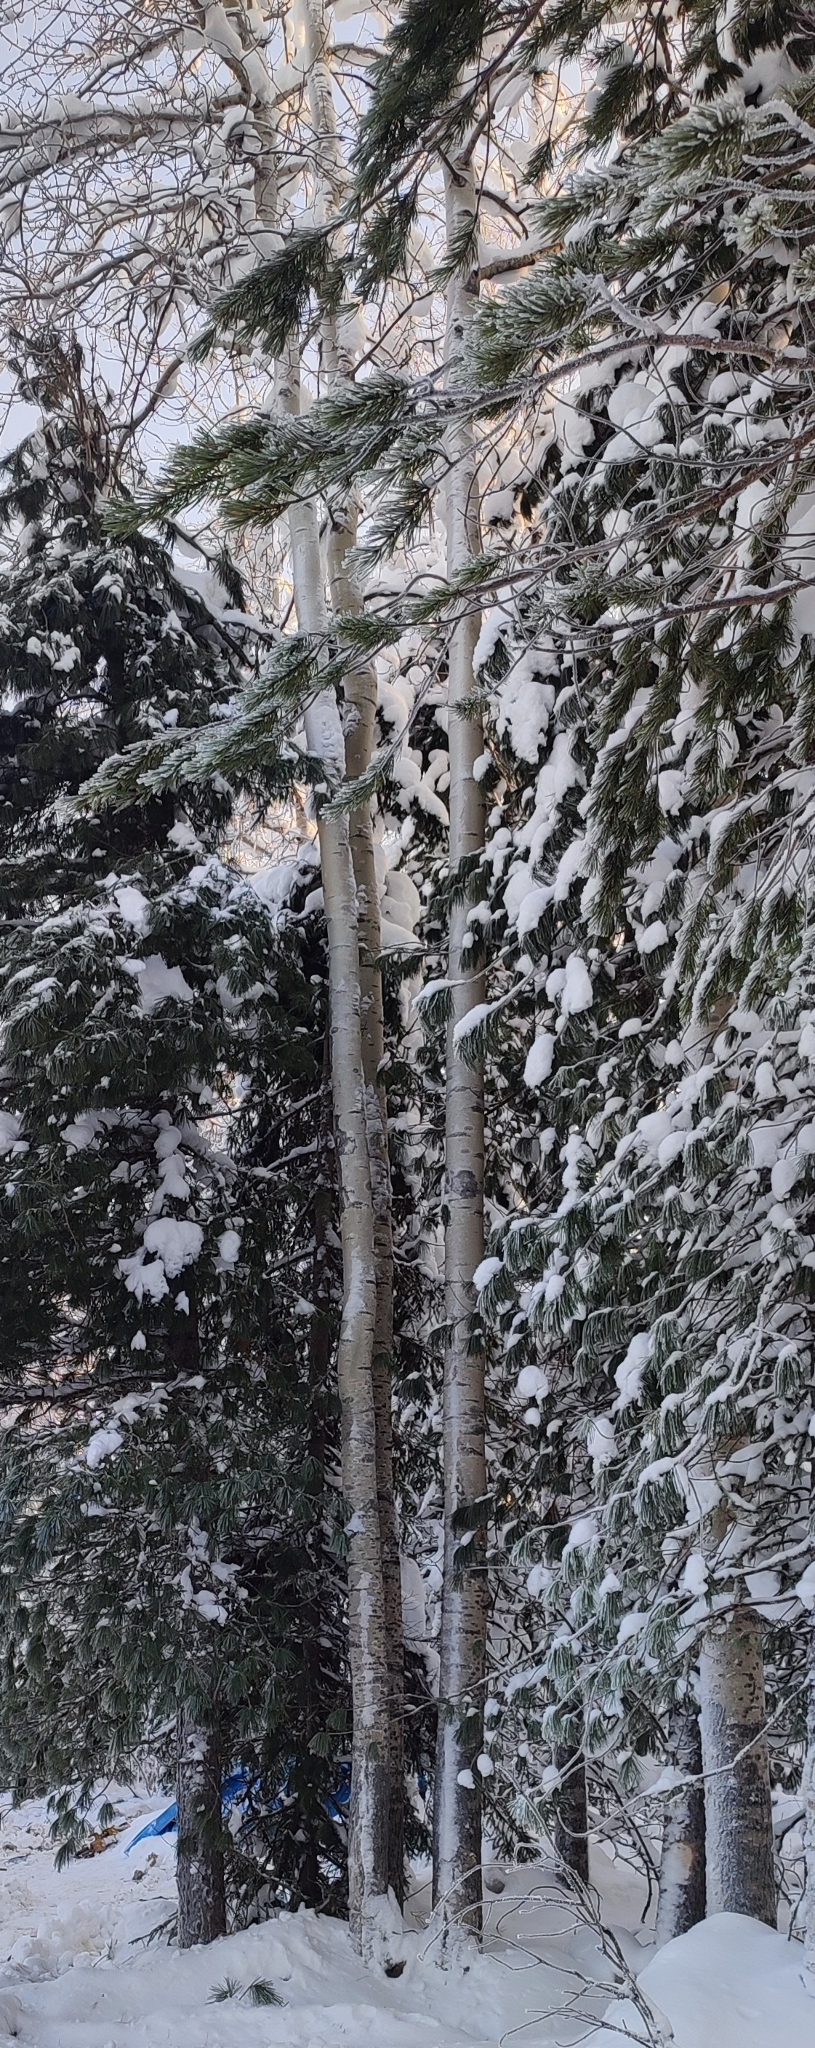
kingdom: Plantae
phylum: Tracheophyta
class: Magnoliopsida
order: Malpighiales
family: Salicaceae
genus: Populus
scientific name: Populus tremula
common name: European aspen
